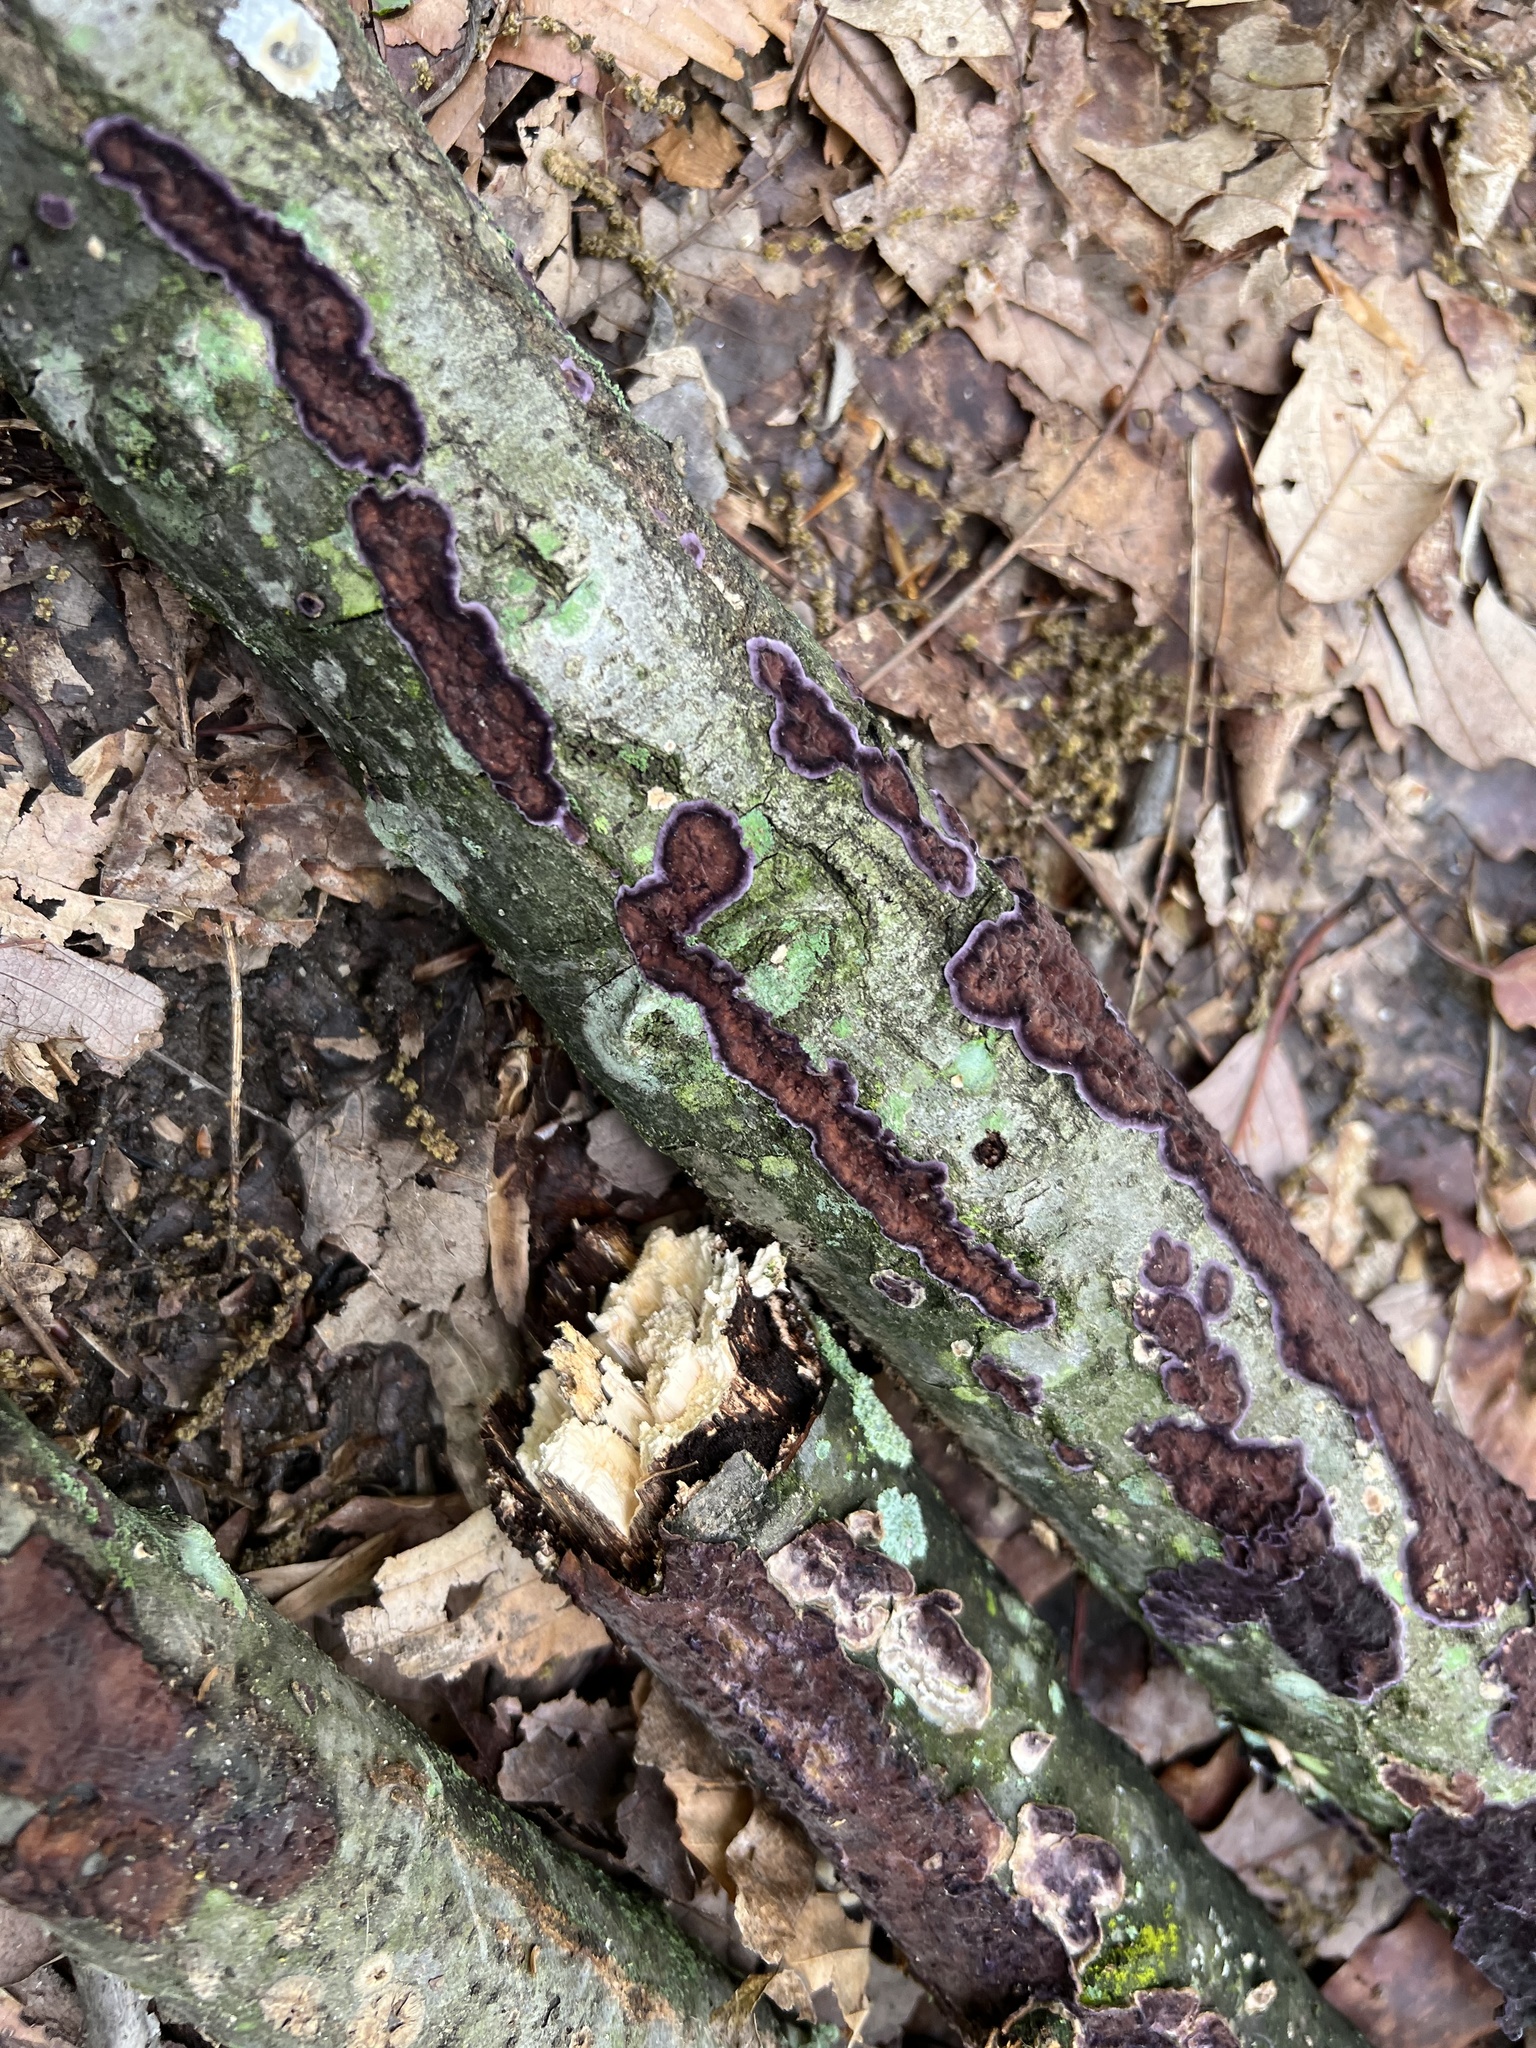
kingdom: Fungi
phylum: Basidiomycota
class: Agaricomycetes
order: Polyporales
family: Phanerochaetaceae
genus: Phlebiopsis
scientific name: Phlebiopsis crassa
